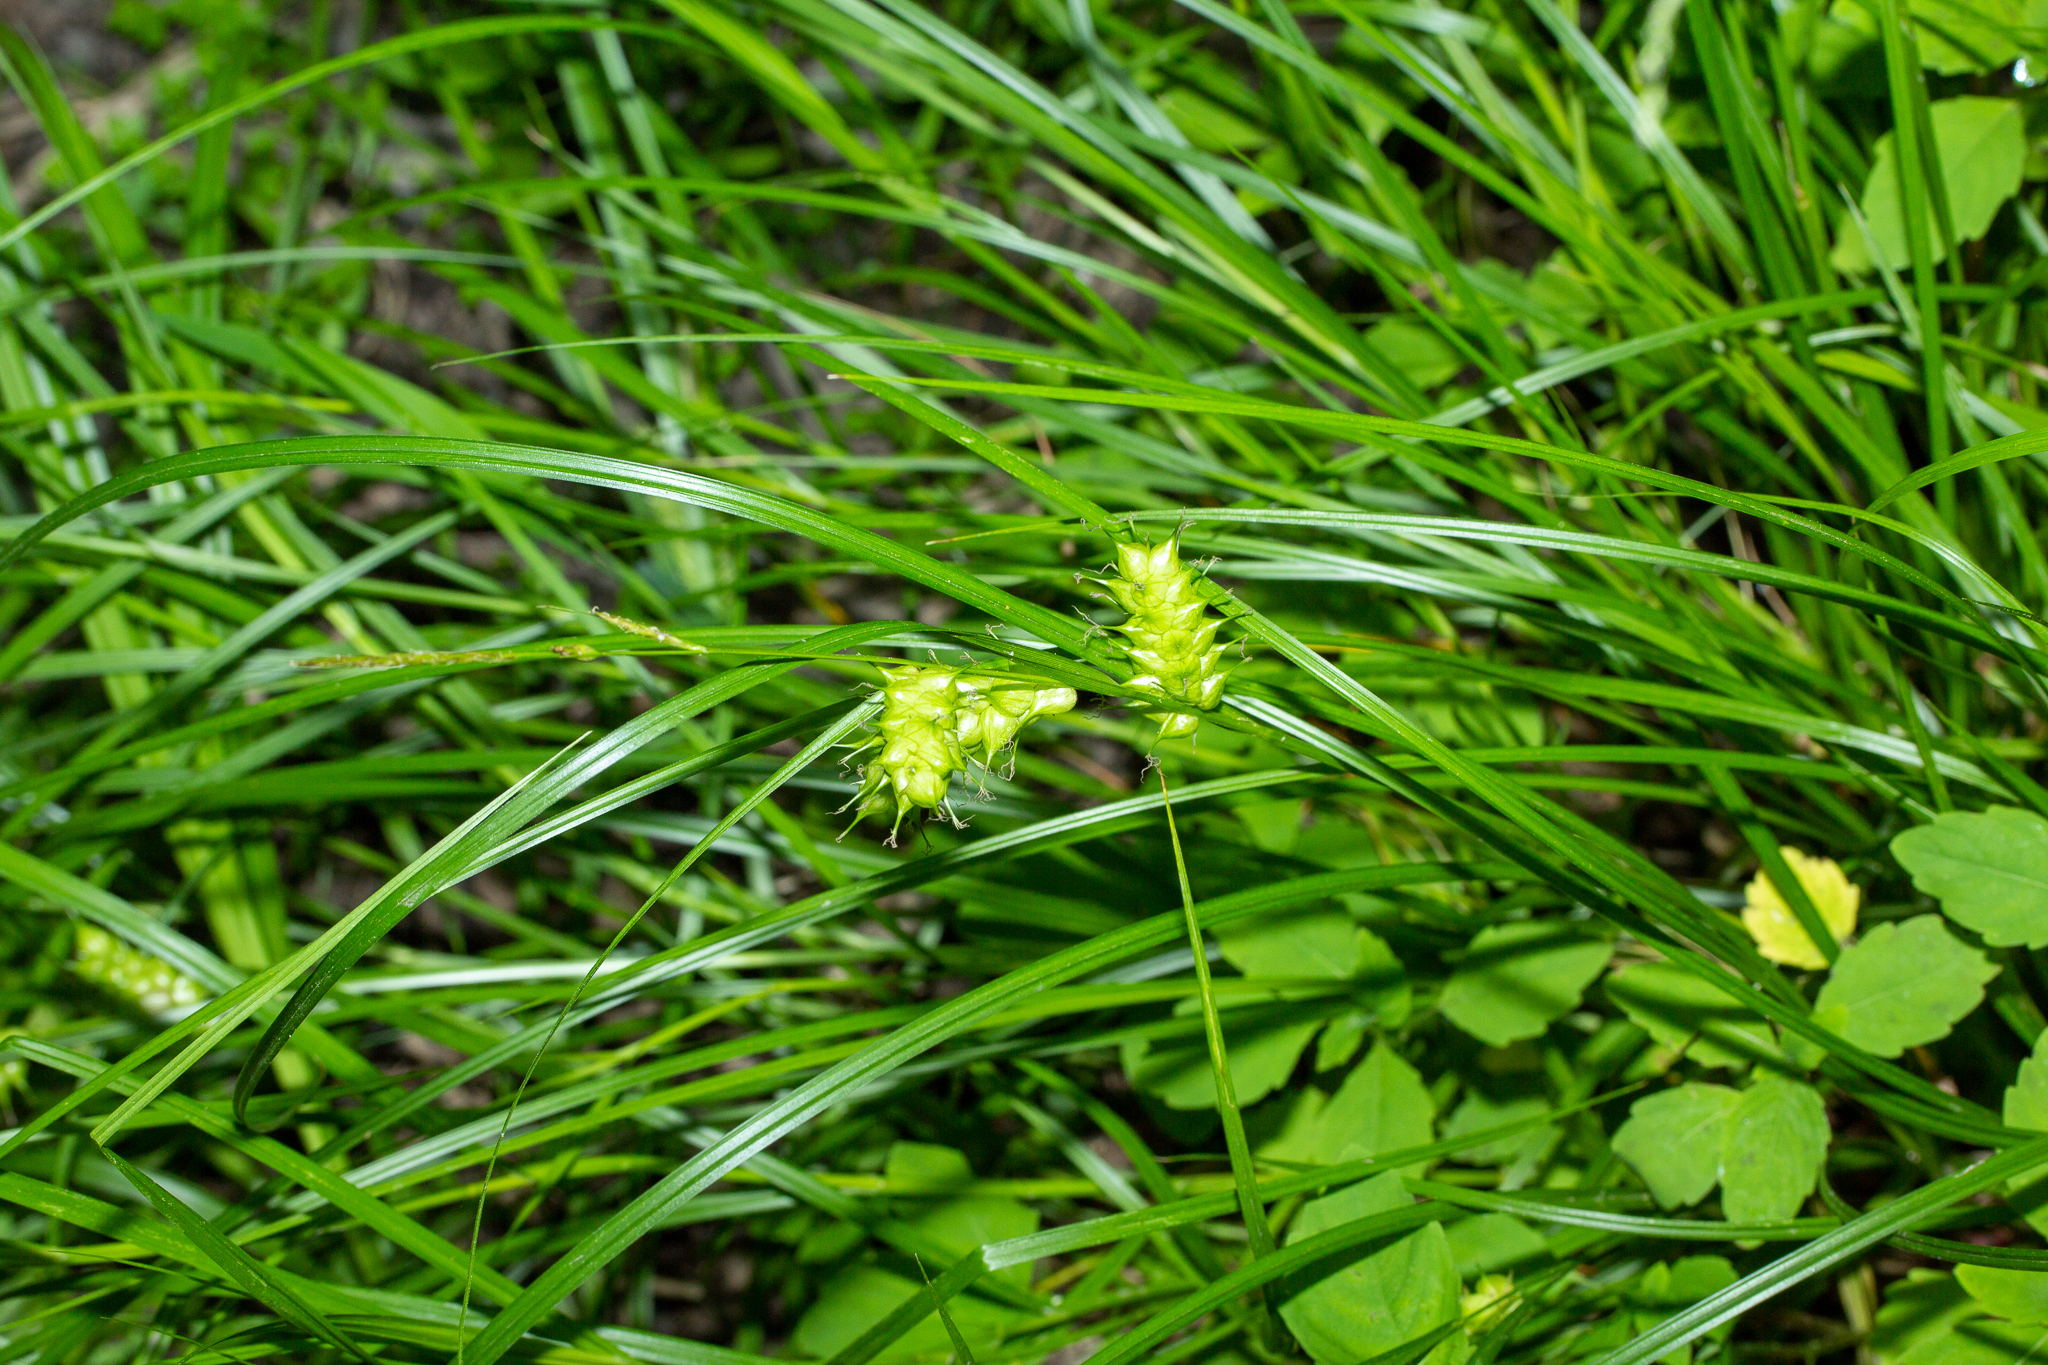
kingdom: Plantae
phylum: Tracheophyta
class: Liliopsida
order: Poales
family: Cyperaceae
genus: Carex
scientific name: Carex tuckermanii
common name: Tuckerman's sedge
